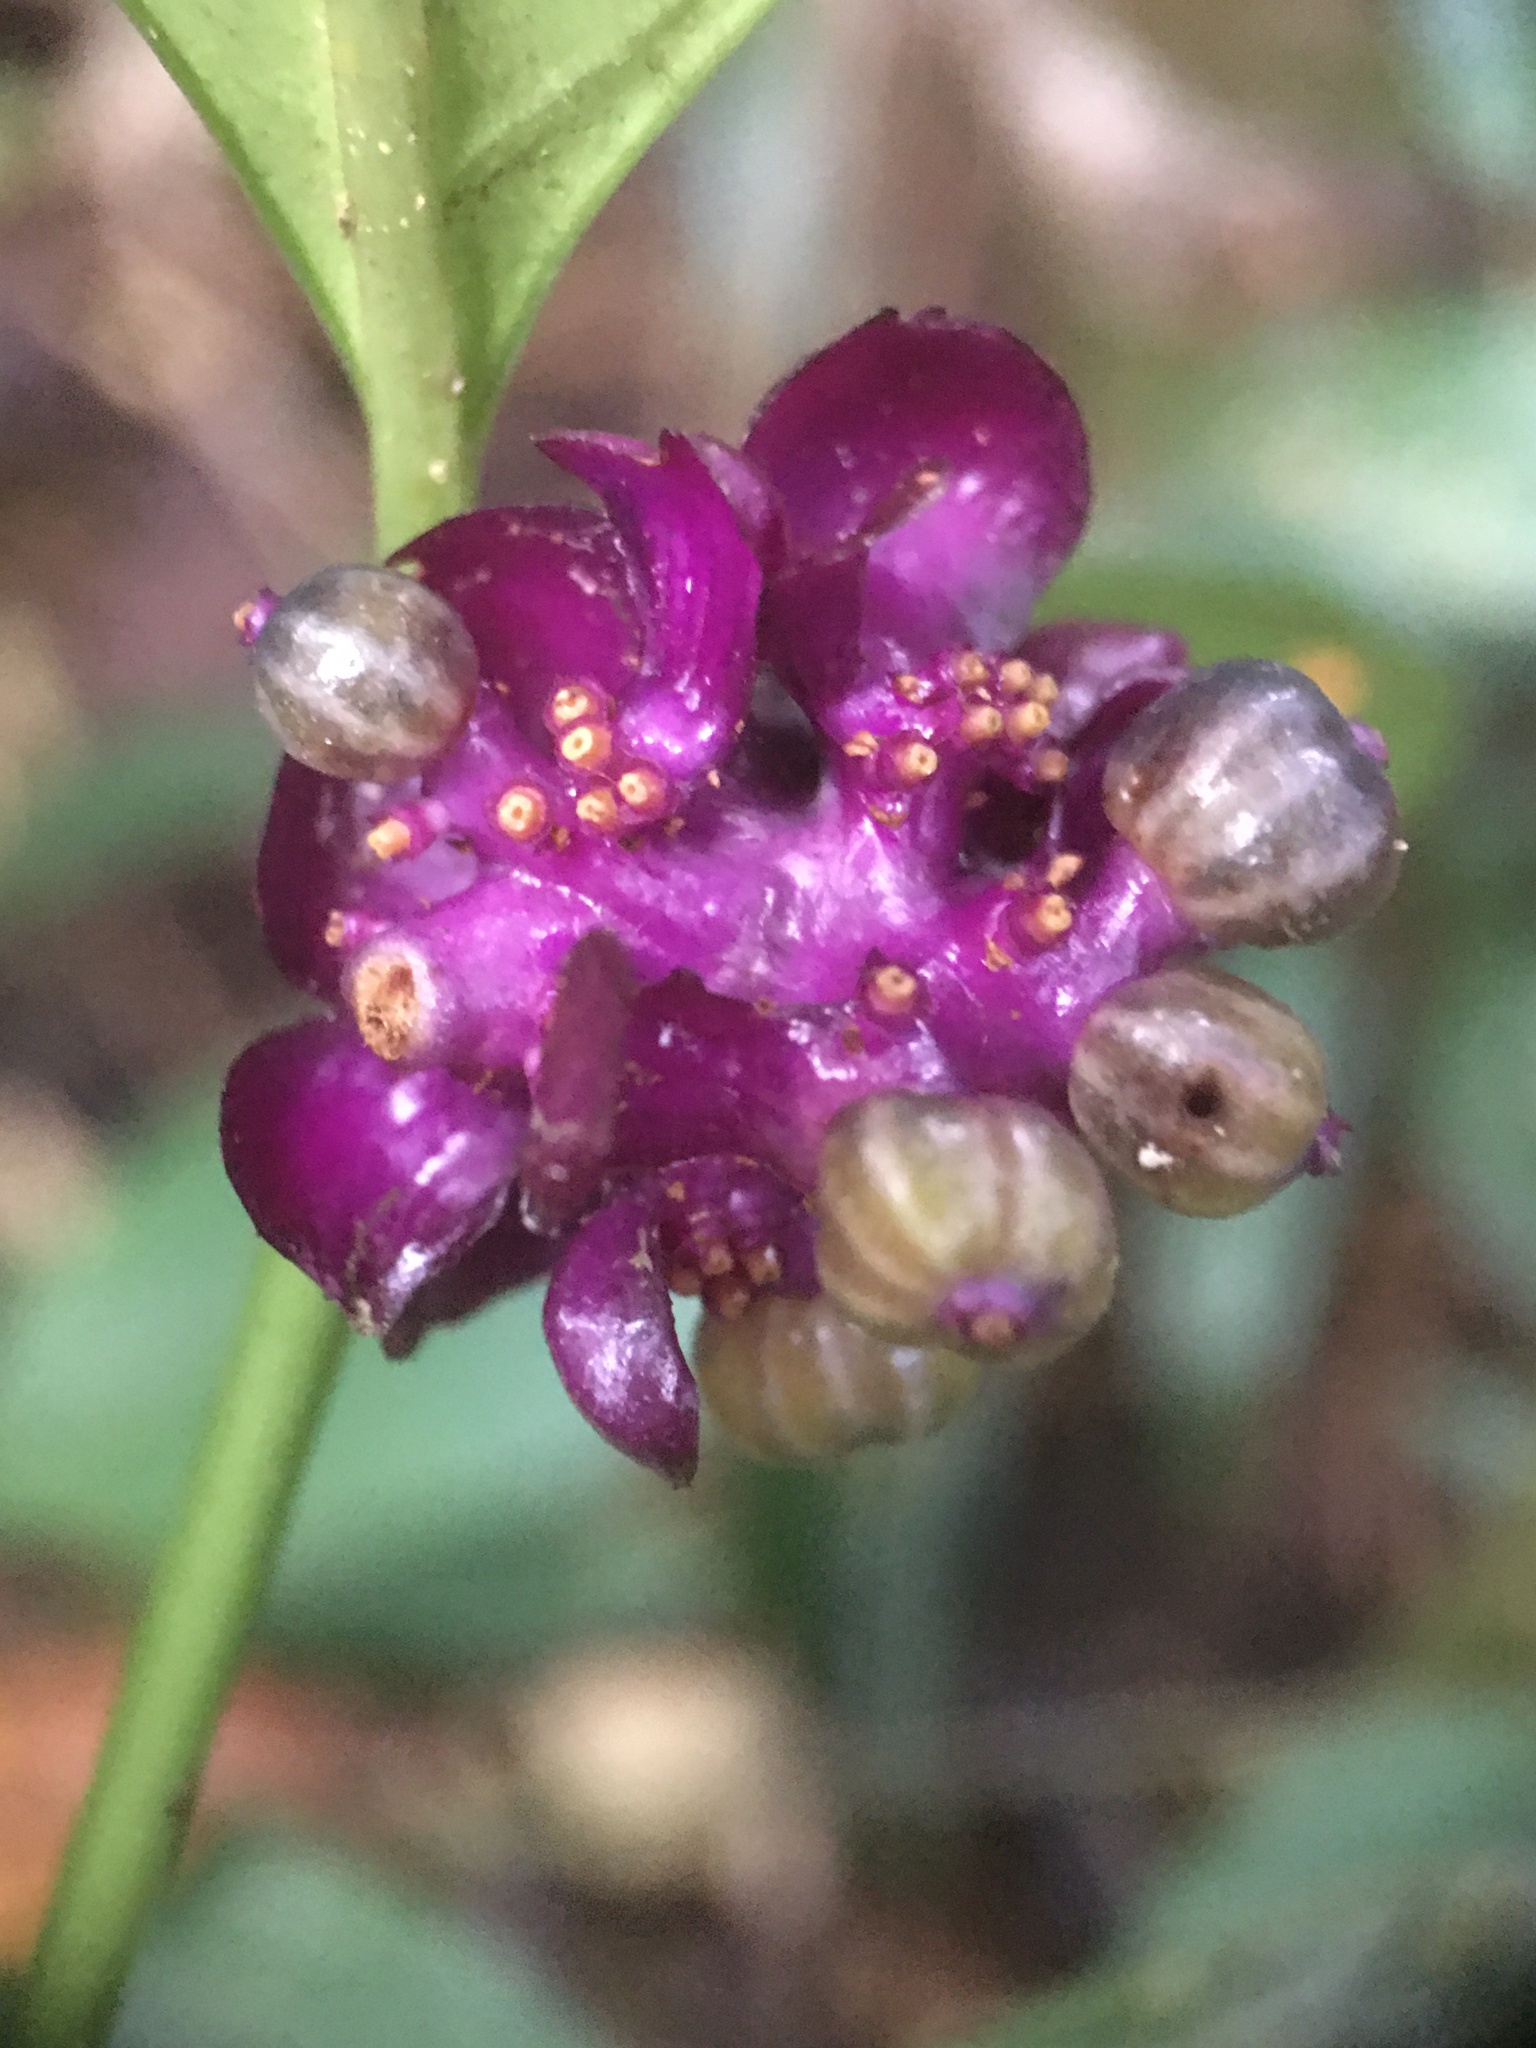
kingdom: Plantae
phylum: Tracheophyta
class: Magnoliopsida
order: Gentianales
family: Rubiaceae
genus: Palicourea
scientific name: Palicourea dichotoma
